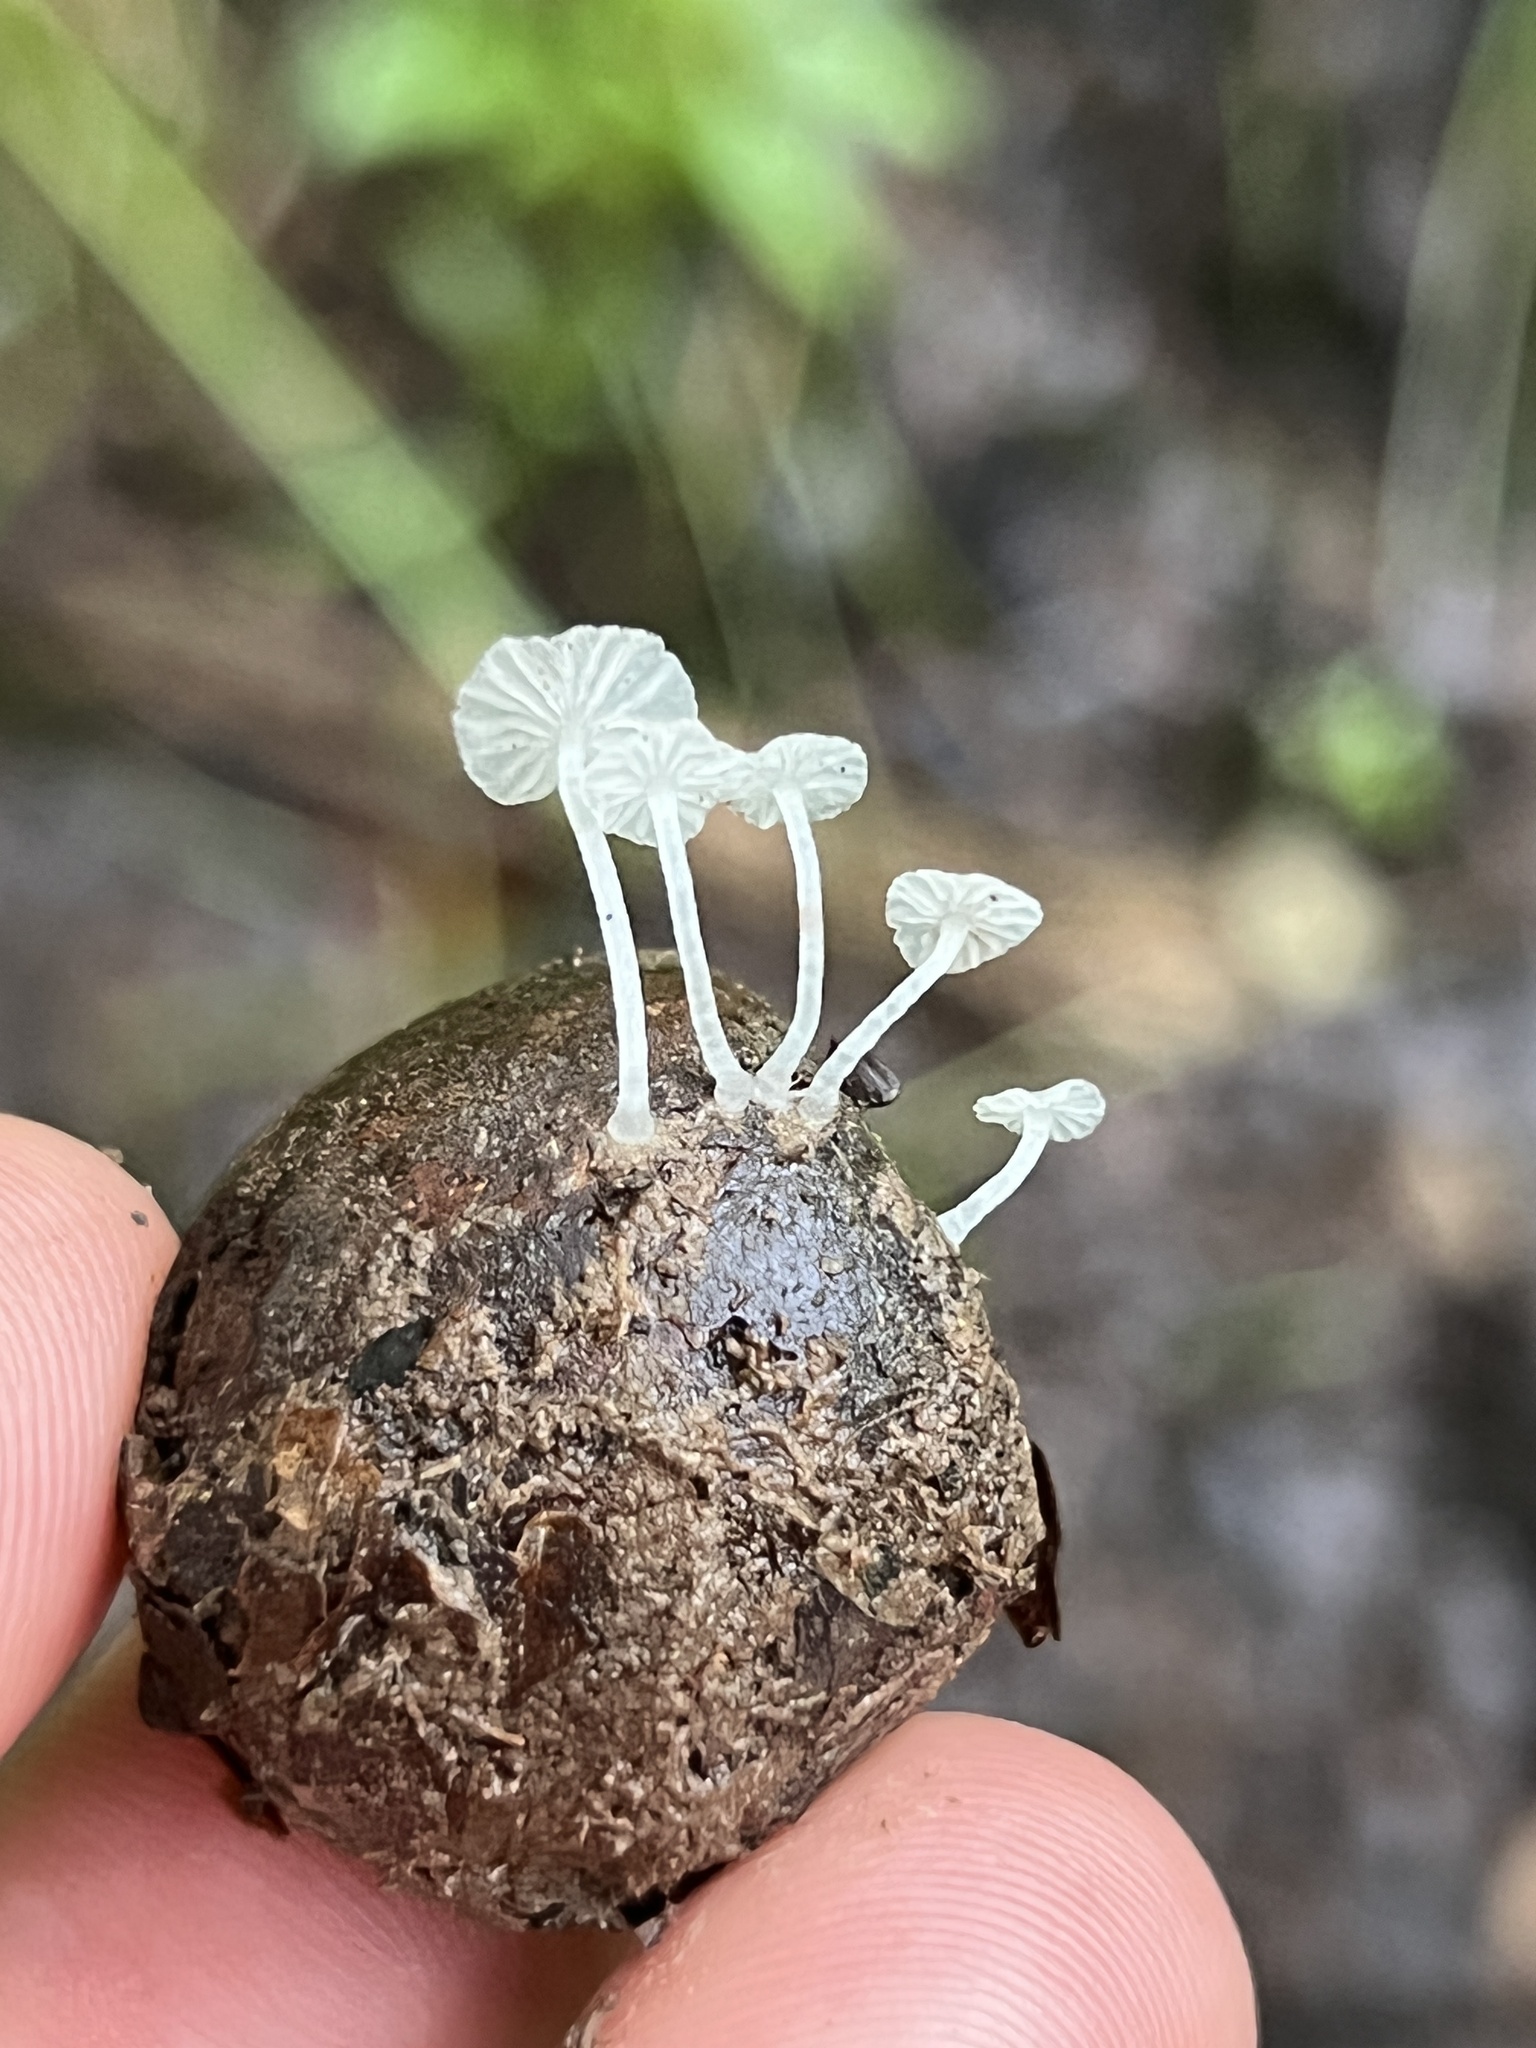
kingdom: Fungi
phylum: Basidiomycota
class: Agaricomycetes
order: Agaricales
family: Tricholomataceae
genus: Delicatula
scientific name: Delicatula integrella
